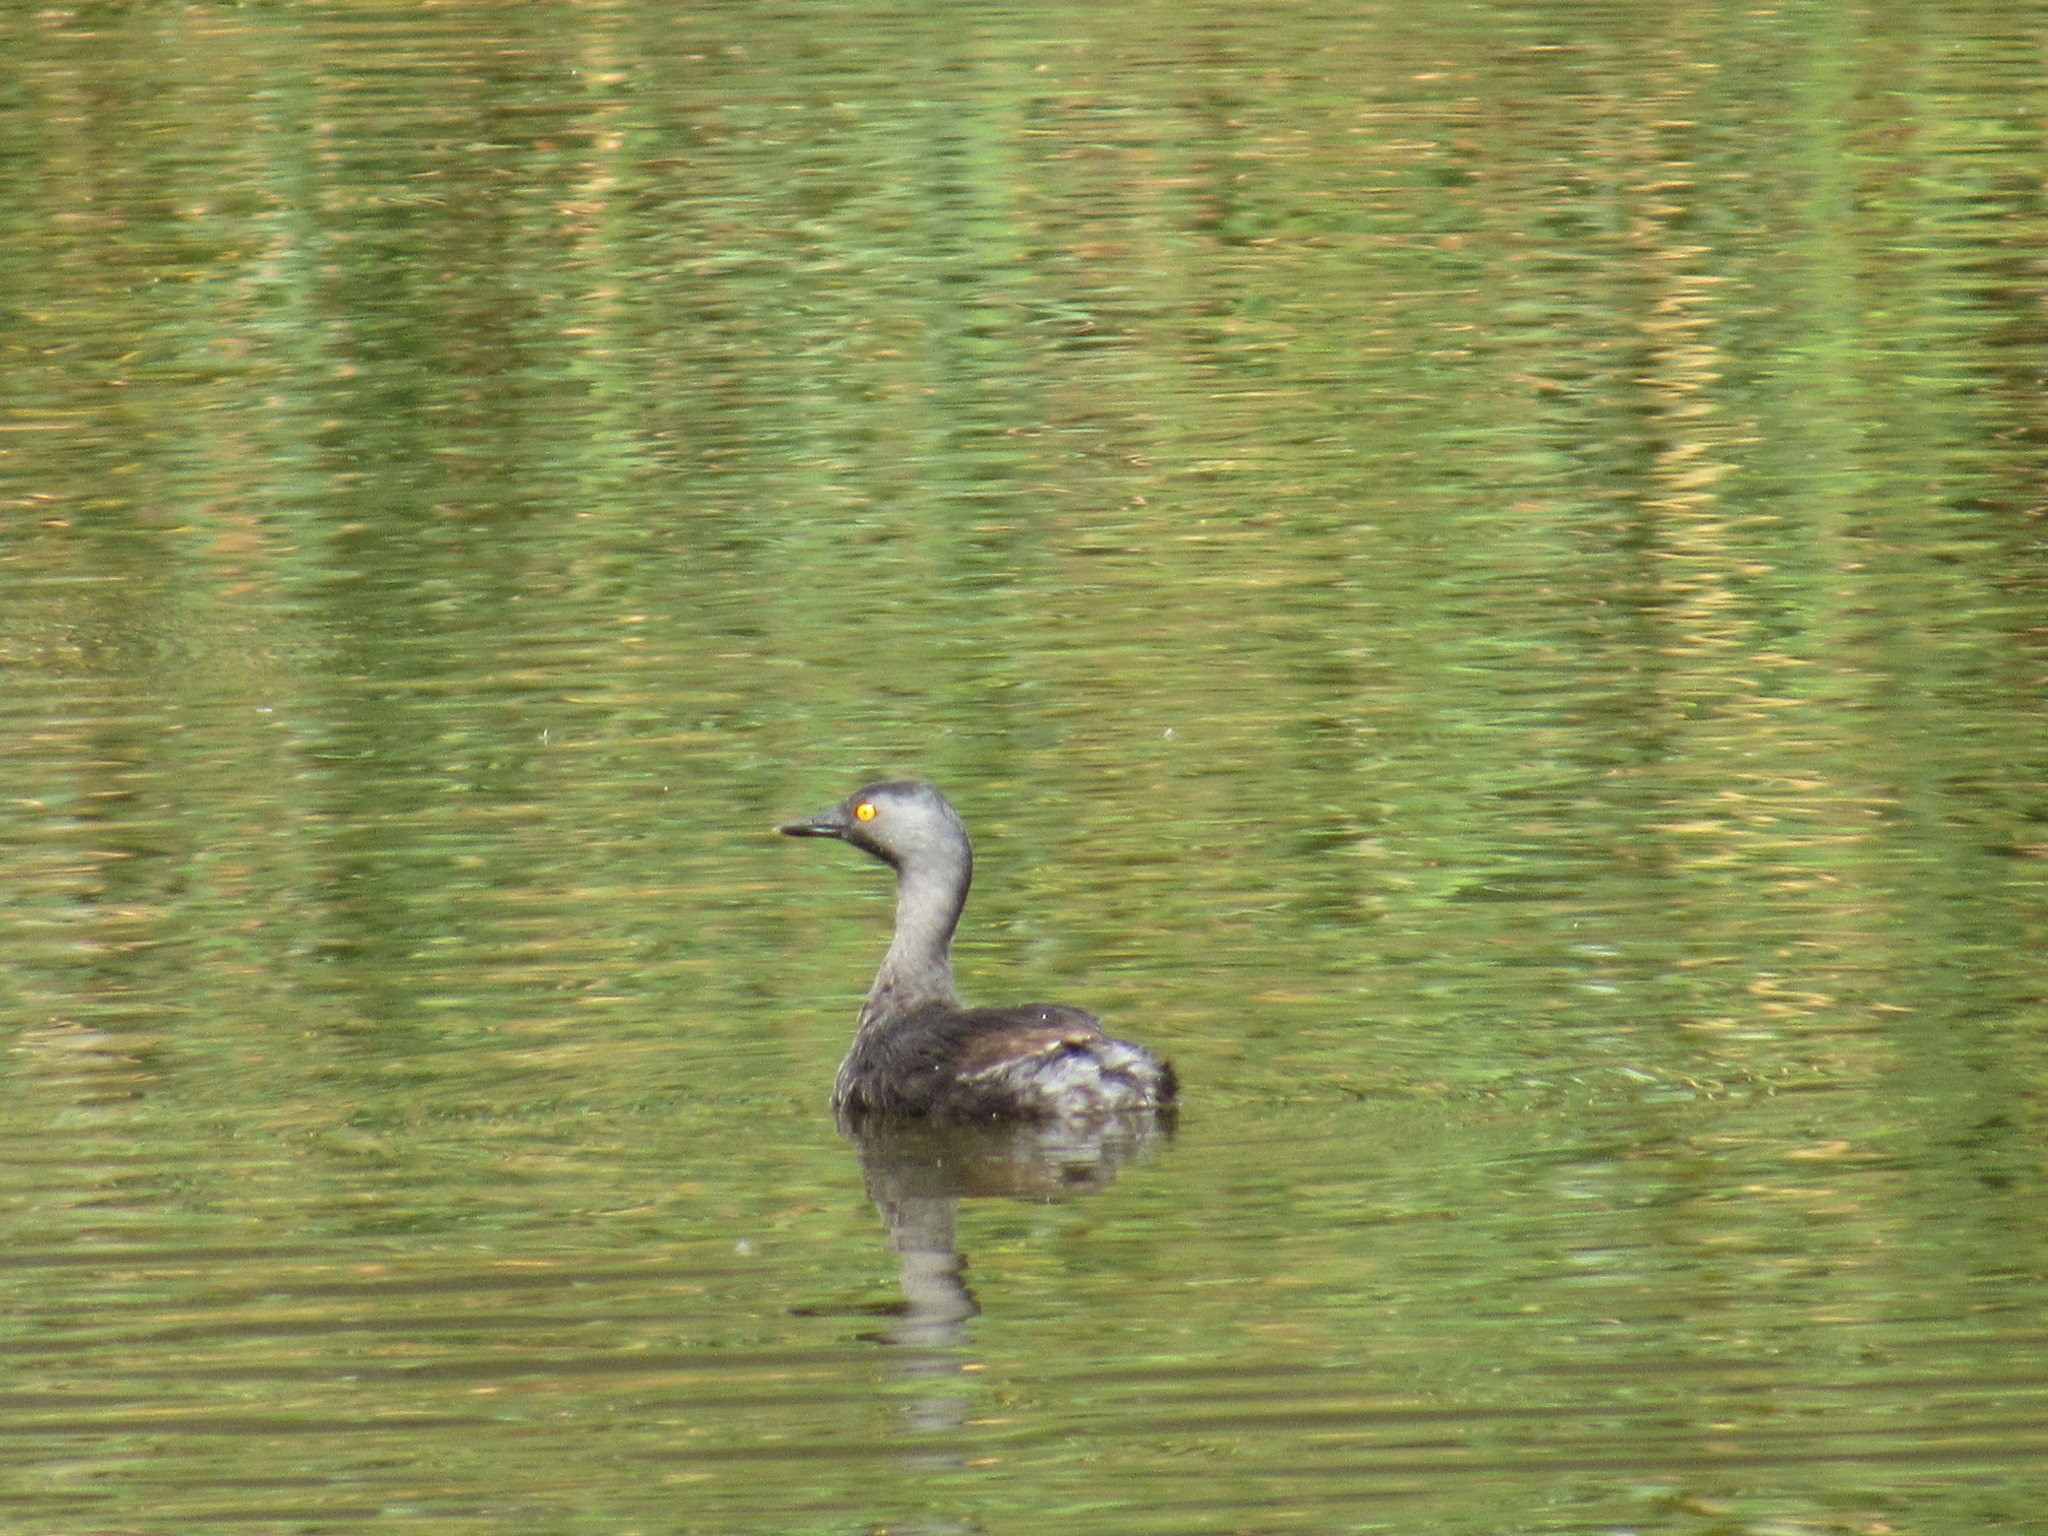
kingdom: Animalia
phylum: Chordata
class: Aves
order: Podicipediformes
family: Podicipedidae
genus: Tachybaptus
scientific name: Tachybaptus dominicus
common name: Least grebe
